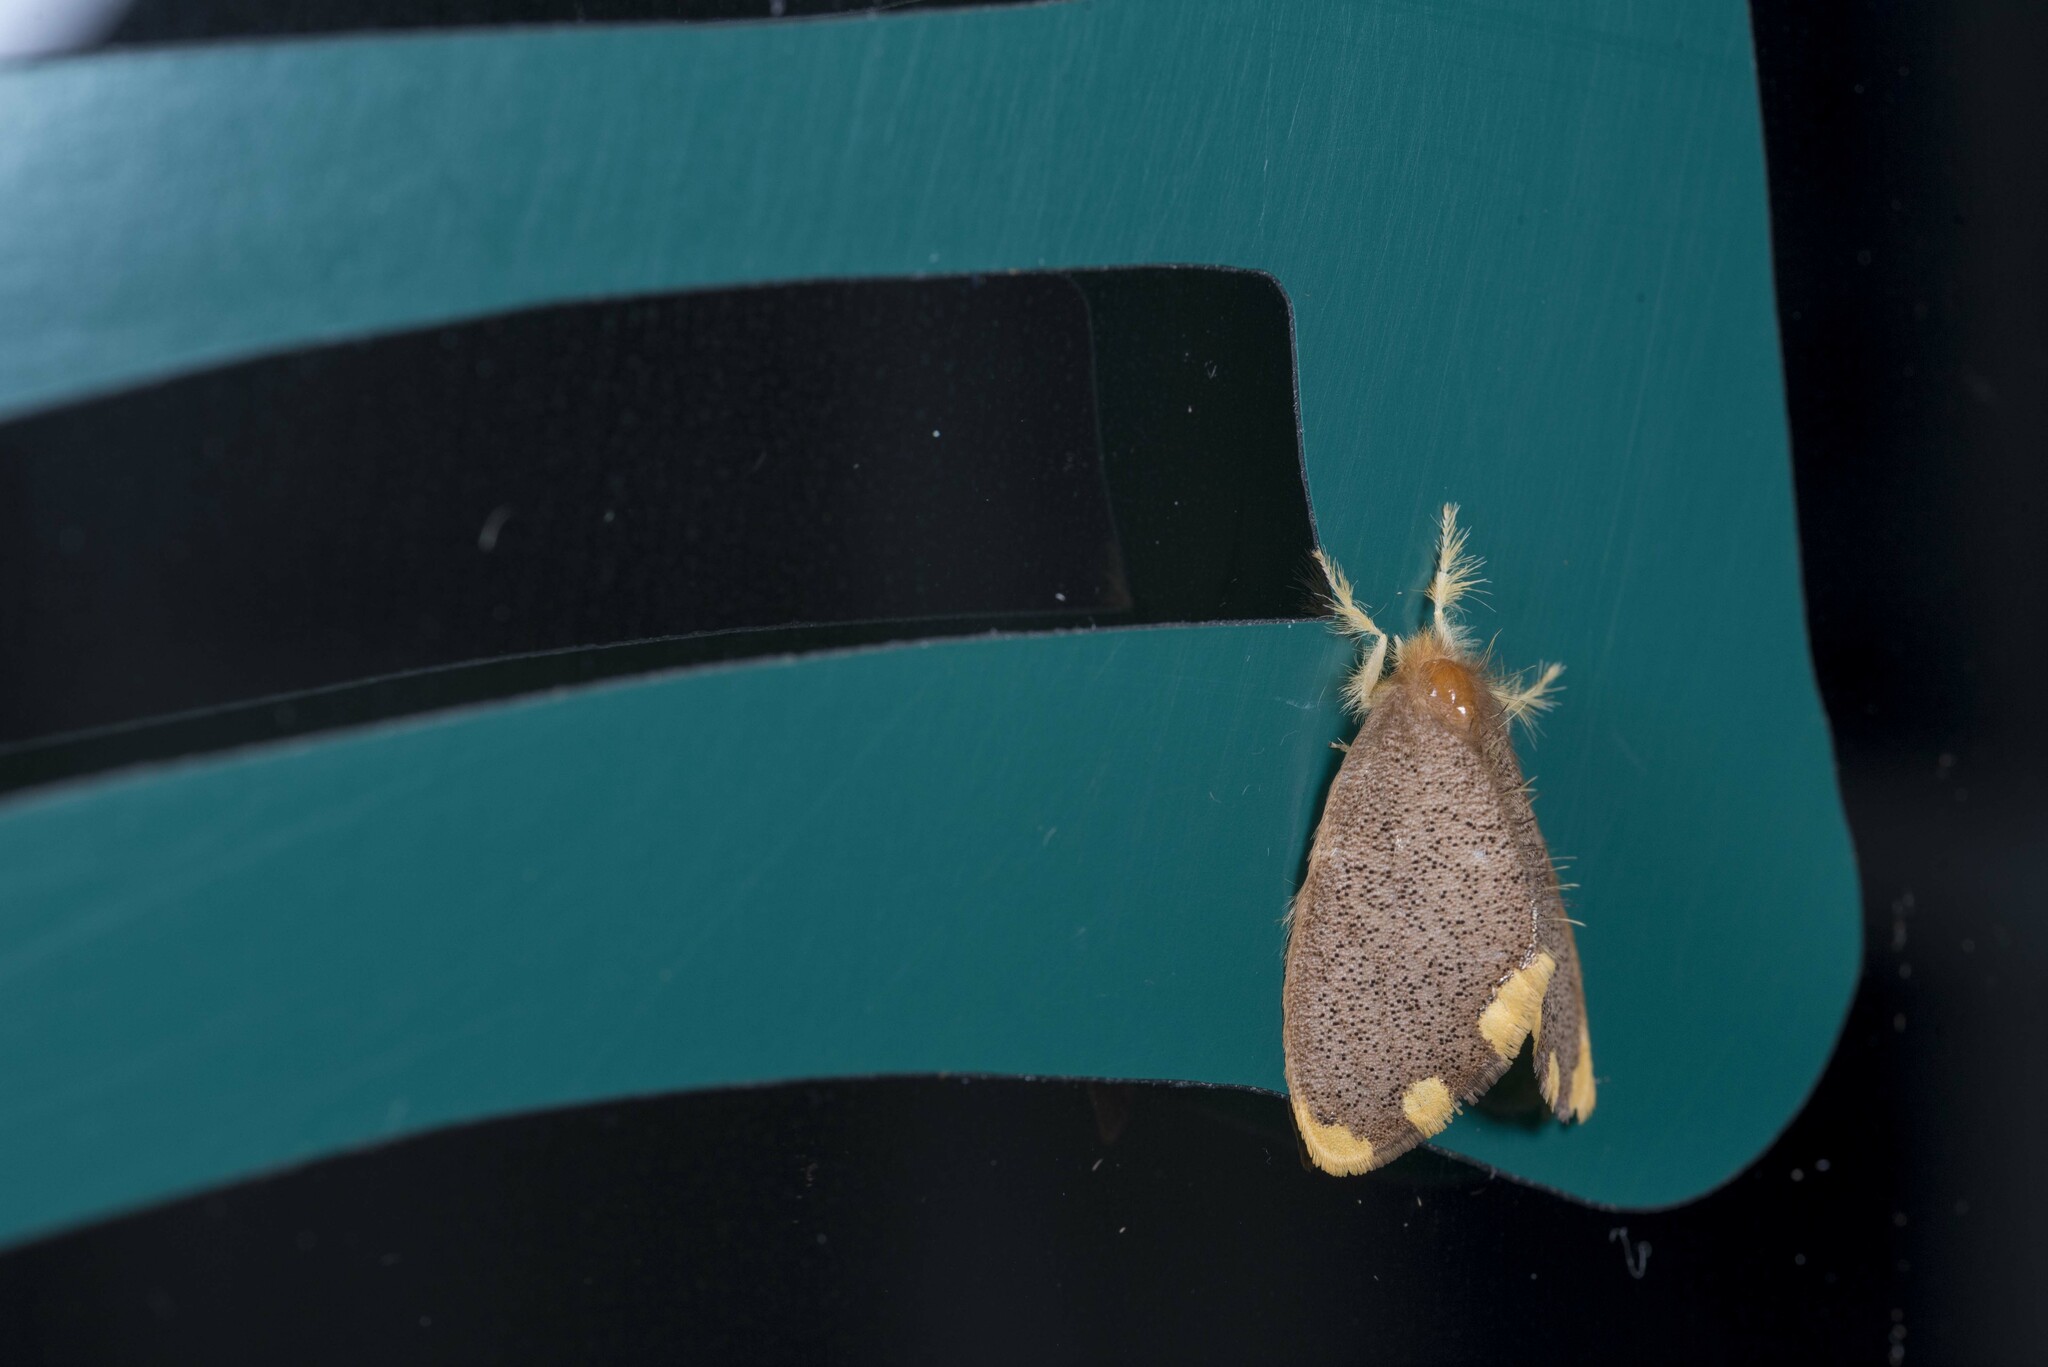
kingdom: Animalia
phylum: Arthropoda
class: Insecta
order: Lepidoptera
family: Erebidae
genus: Somena
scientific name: Somena scintillans
